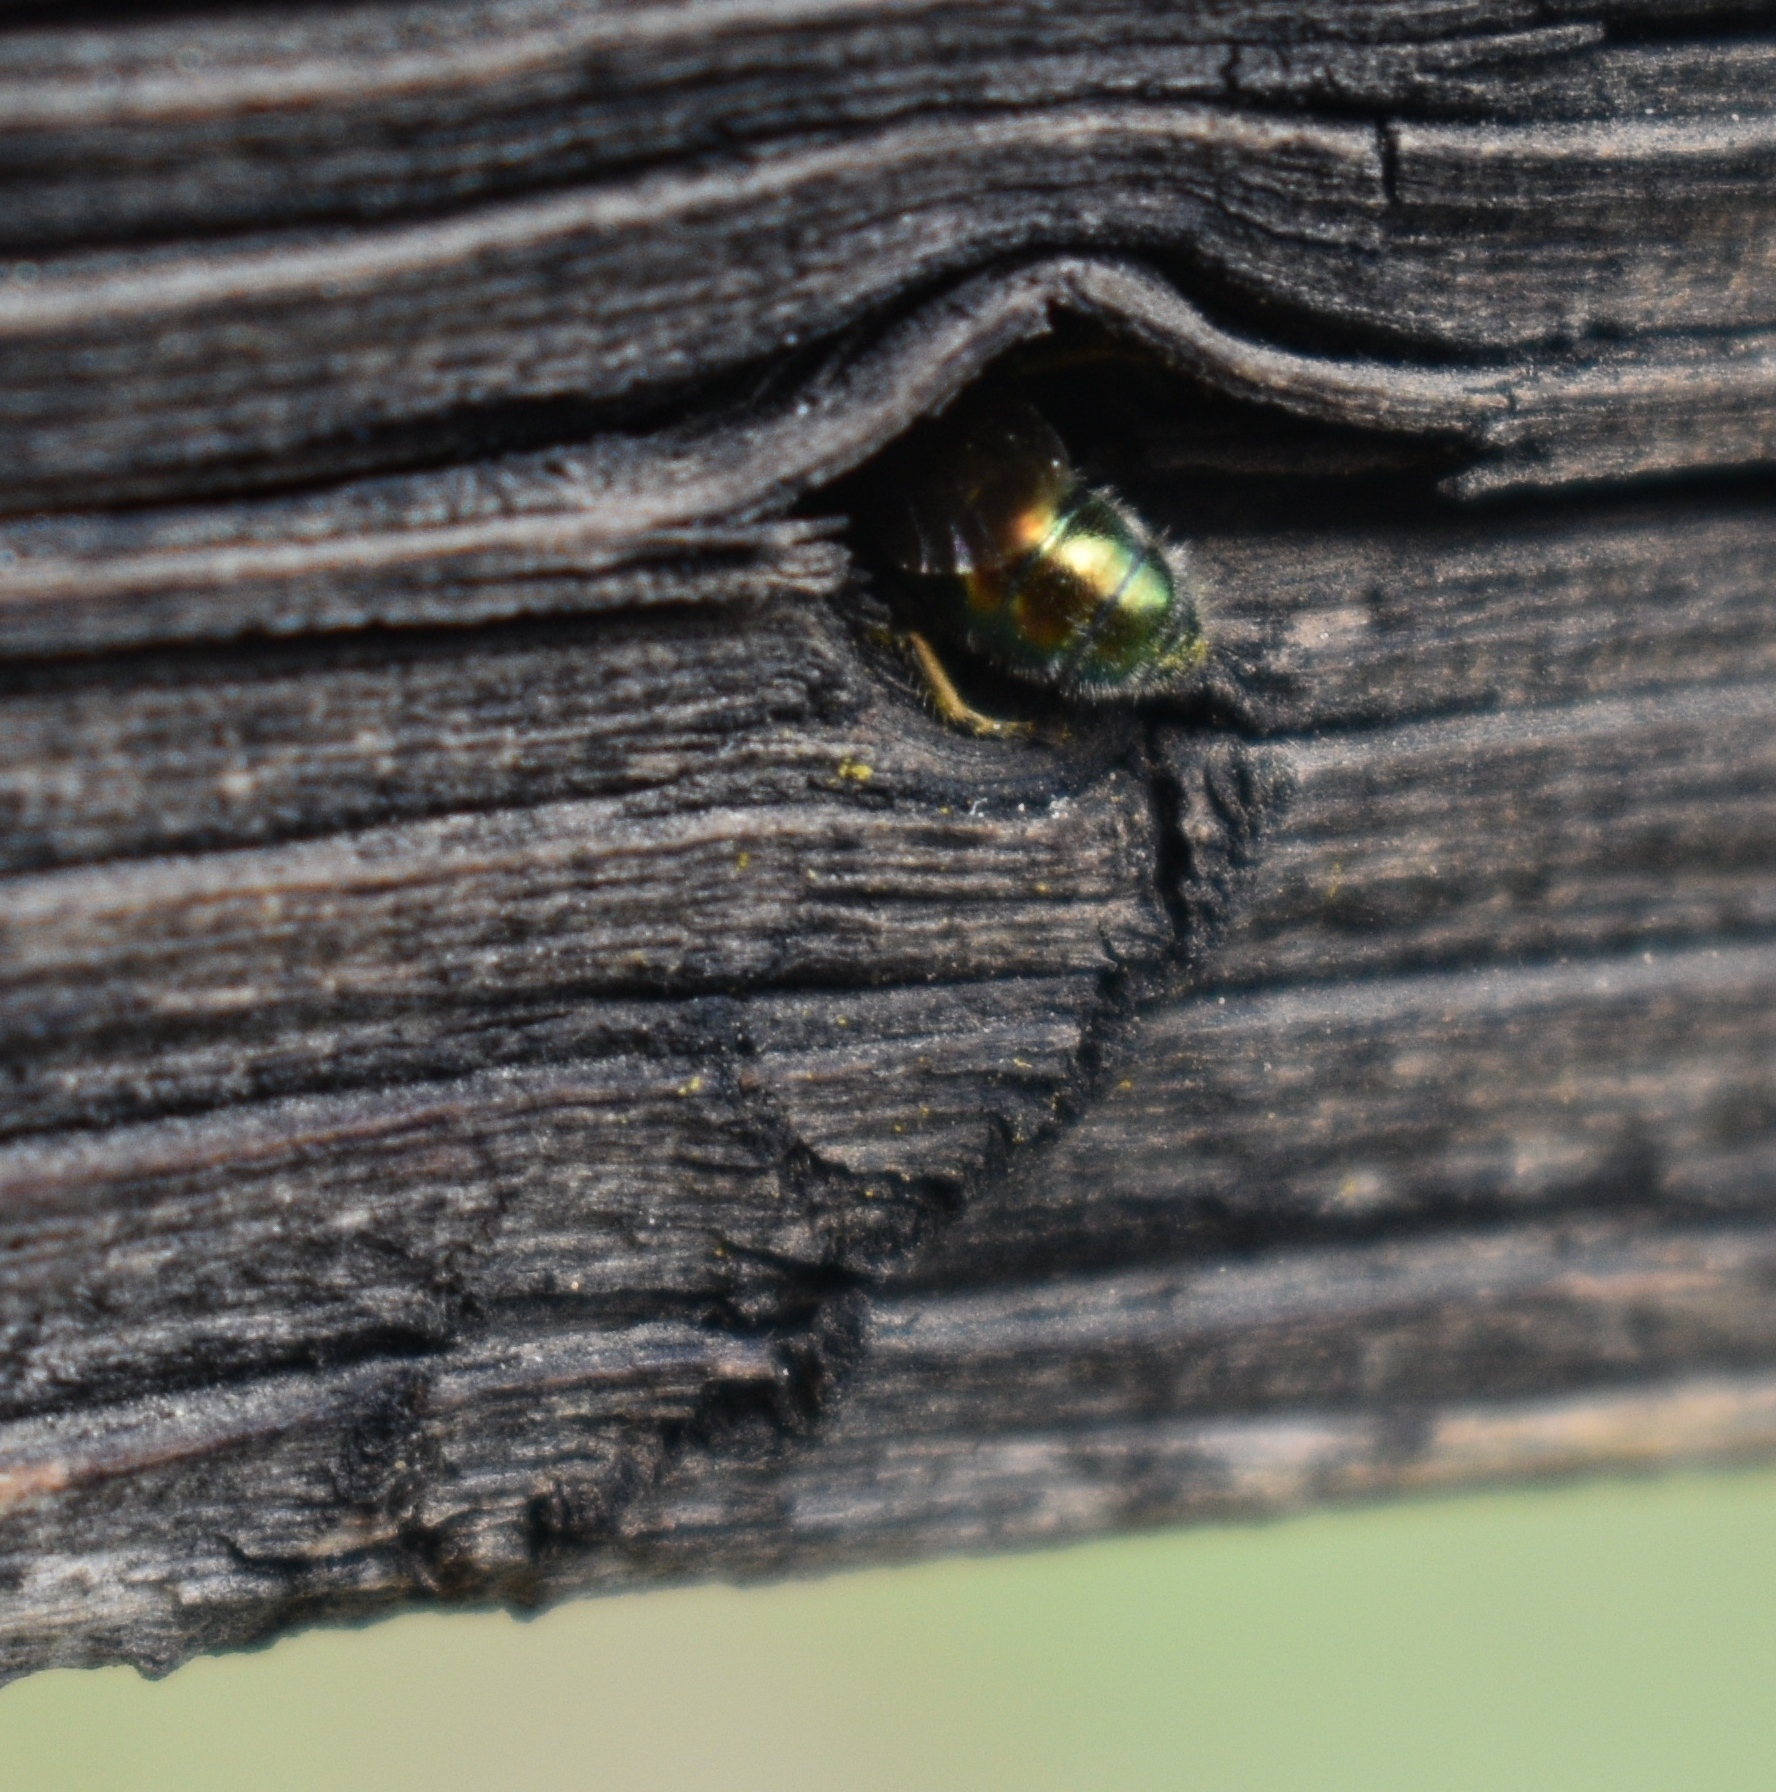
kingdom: Animalia
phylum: Arthropoda
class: Insecta
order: Hymenoptera
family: Megachilidae
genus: Hoplitis
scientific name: Hoplitis fulgida
